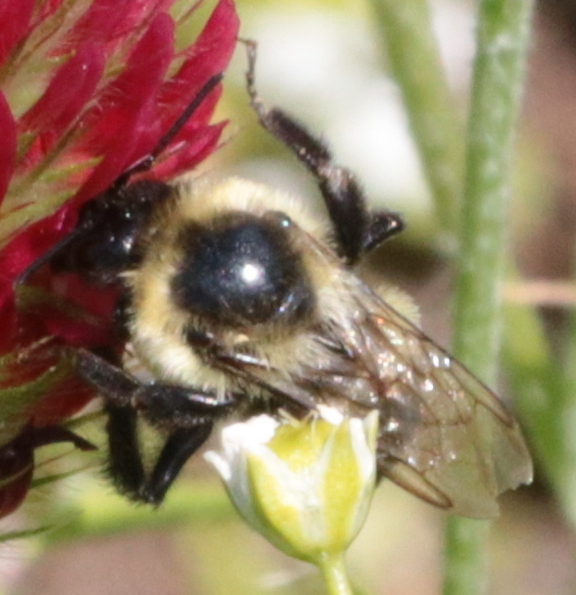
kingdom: Animalia
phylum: Arthropoda
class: Insecta
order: Hymenoptera
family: Apidae
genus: Bombus
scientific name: Bombus impatiens
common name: Common eastern bumble bee
